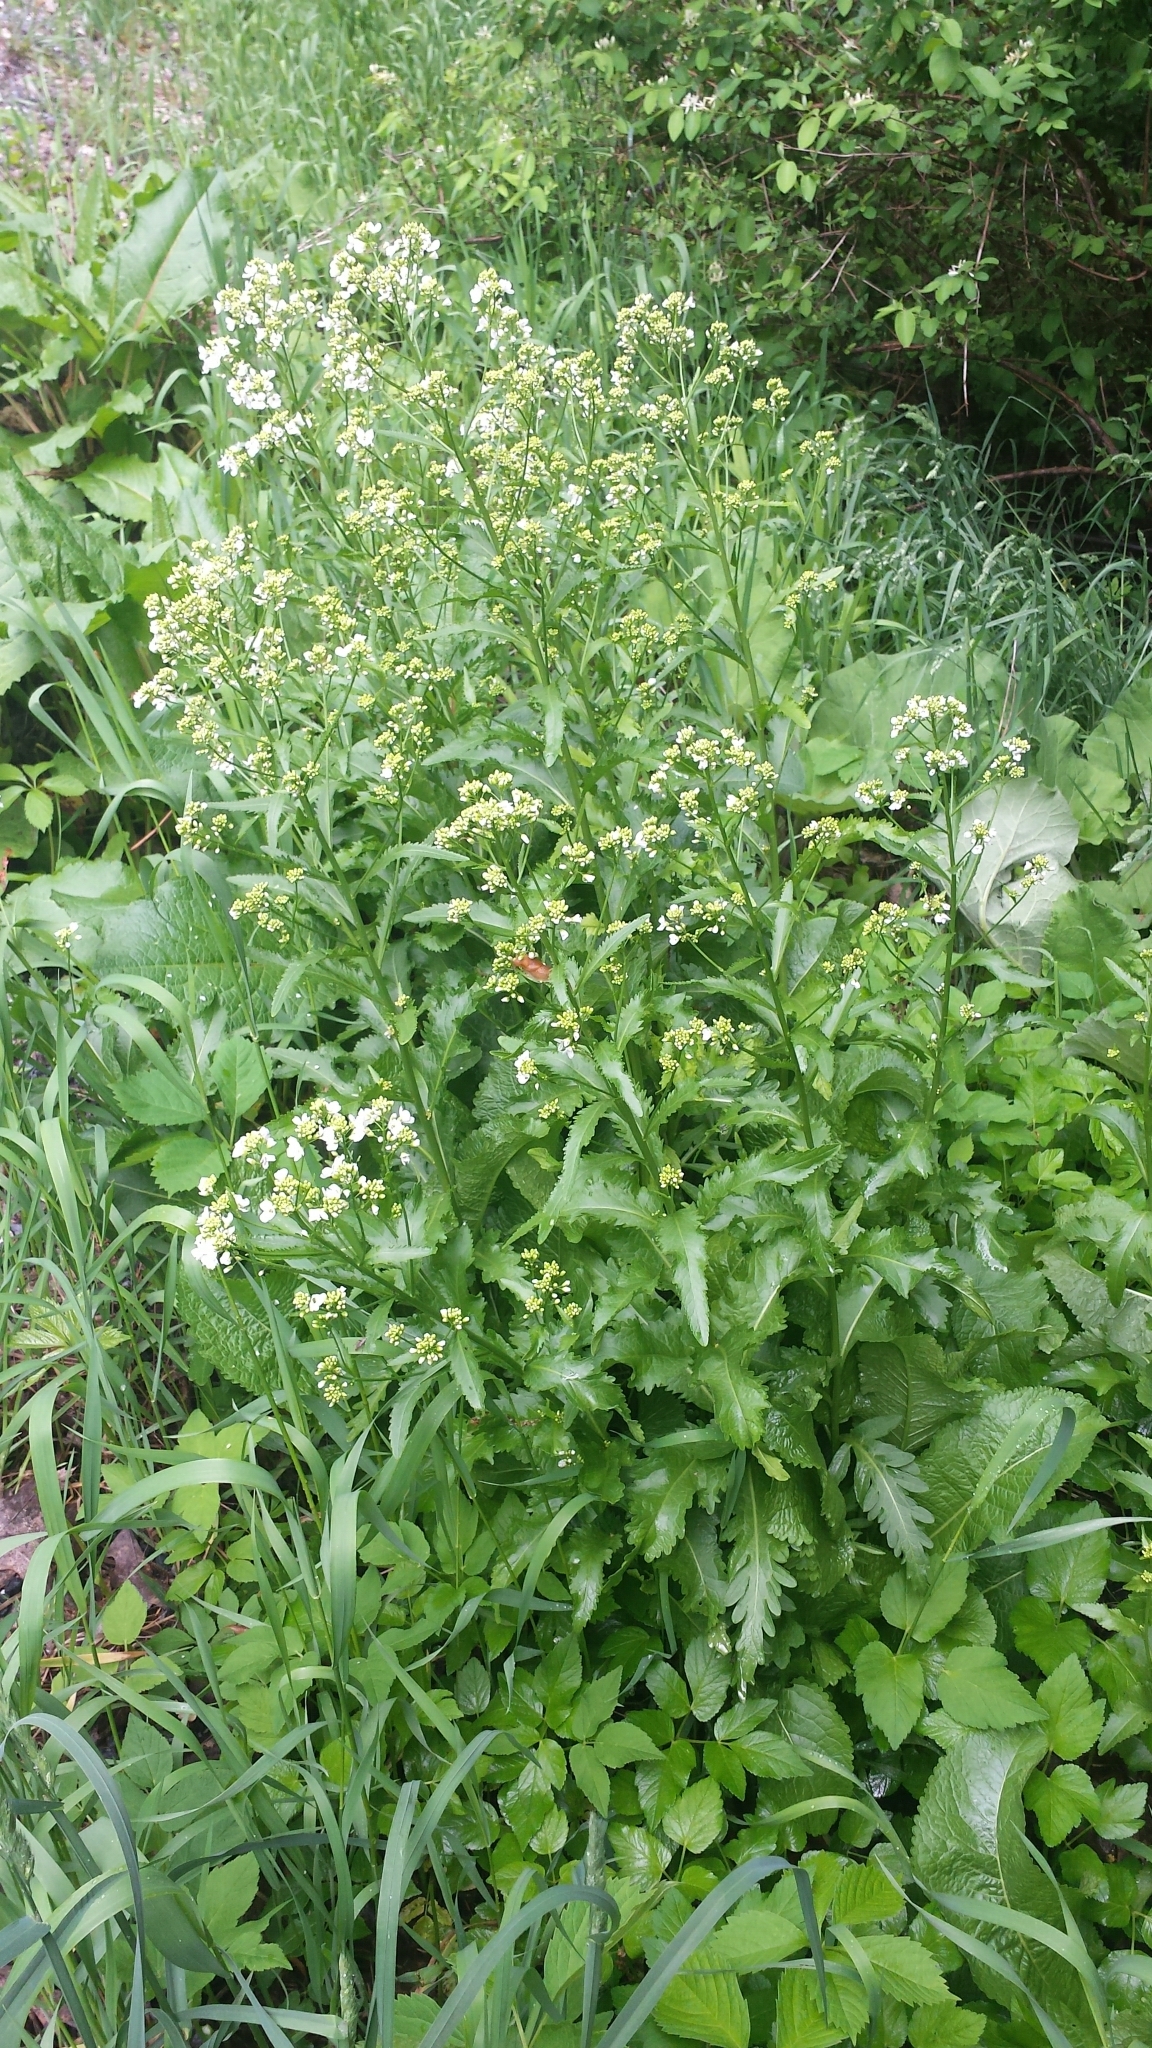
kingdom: Plantae
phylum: Tracheophyta
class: Magnoliopsida
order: Brassicales
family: Brassicaceae
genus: Armoracia
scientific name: Armoracia rusticana
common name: Horseradish
